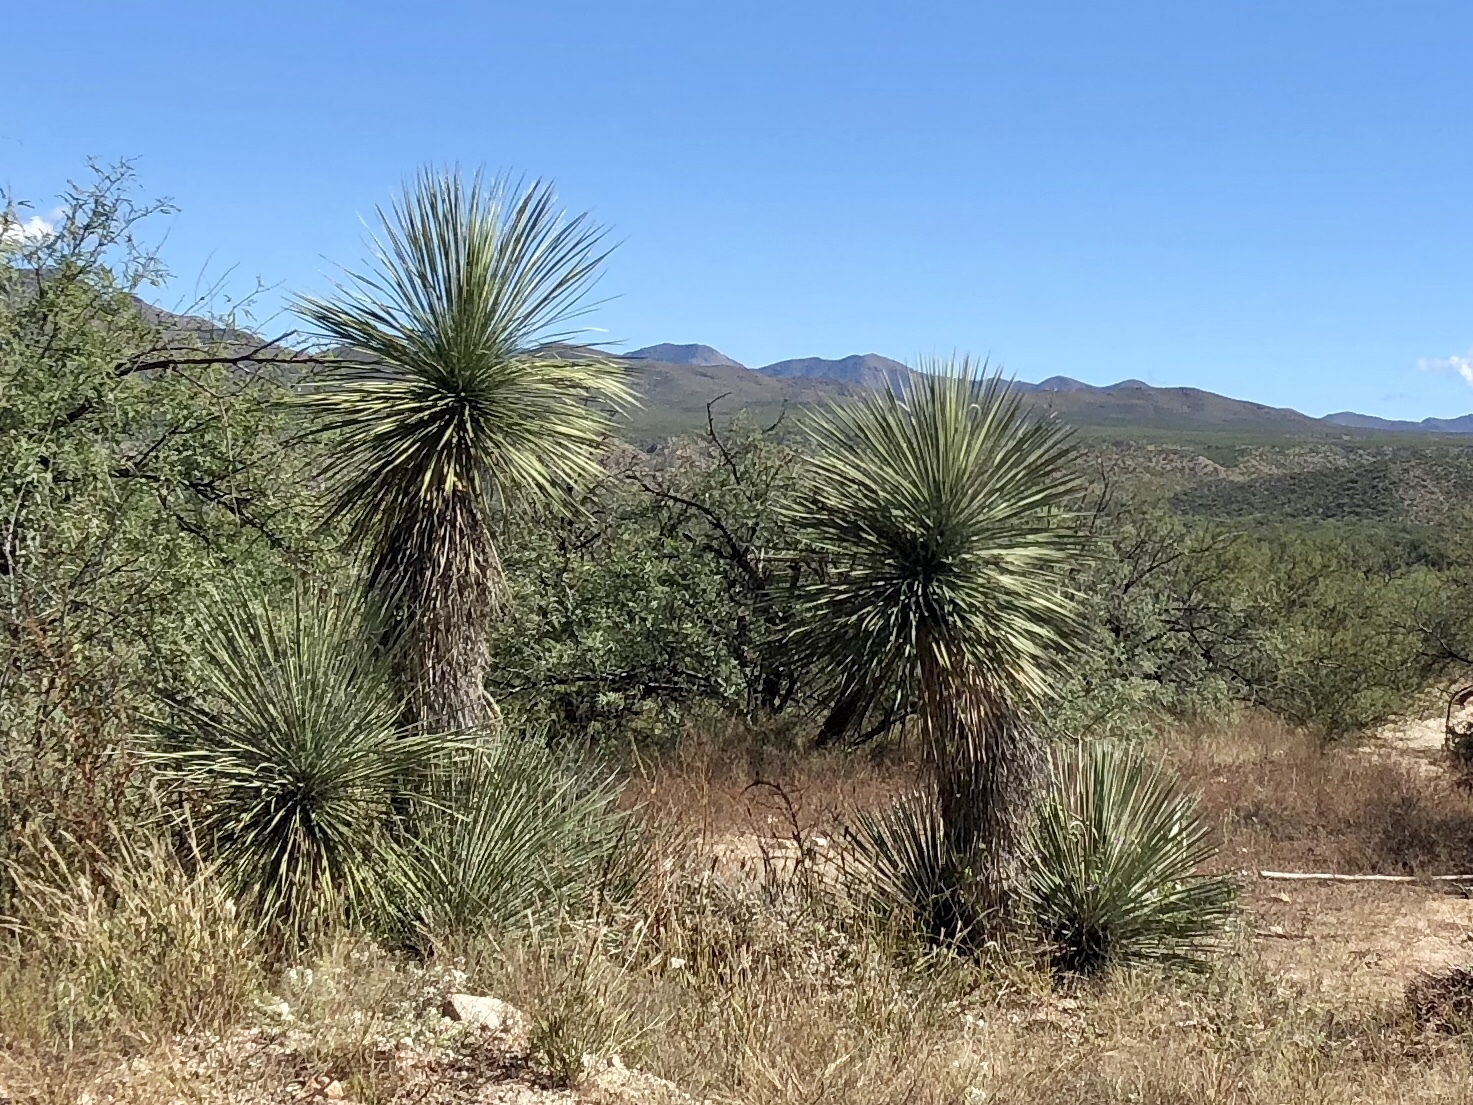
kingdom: Plantae
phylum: Tracheophyta
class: Liliopsida
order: Asparagales
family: Asparagaceae
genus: Yucca
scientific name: Yucca elata
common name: Palmella
